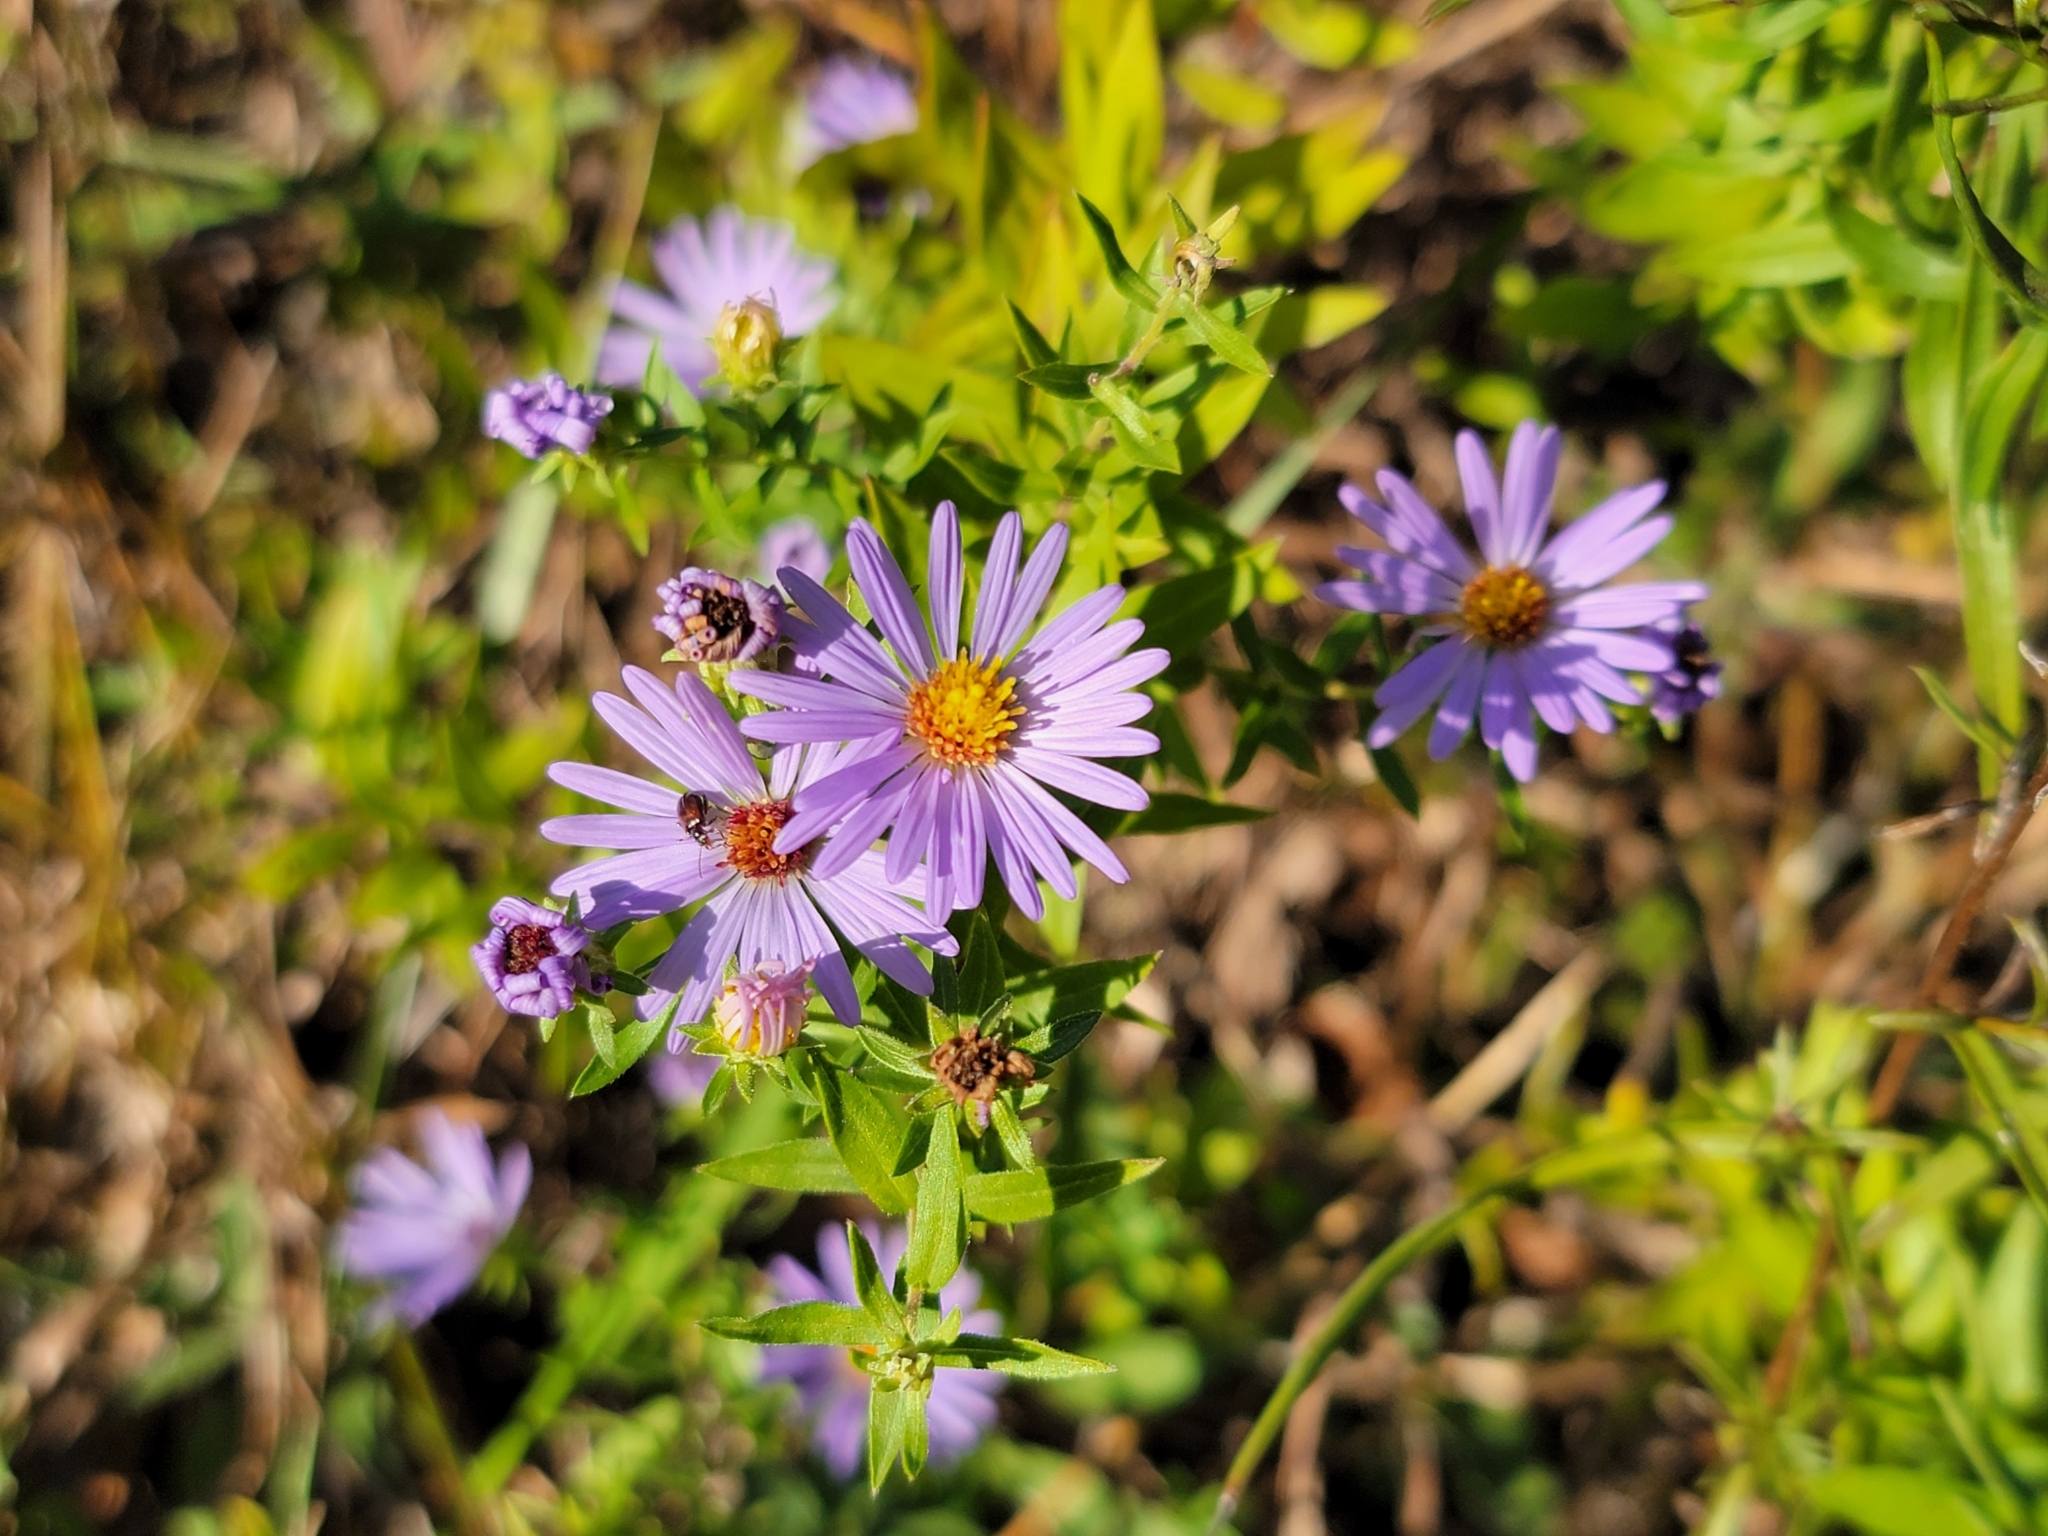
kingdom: Plantae
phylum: Tracheophyta
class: Magnoliopsida
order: Asterales
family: Asteraceae
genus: Symphyotrichum
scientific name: Symphyotrichum oblongifolium
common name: Aromatic aster
